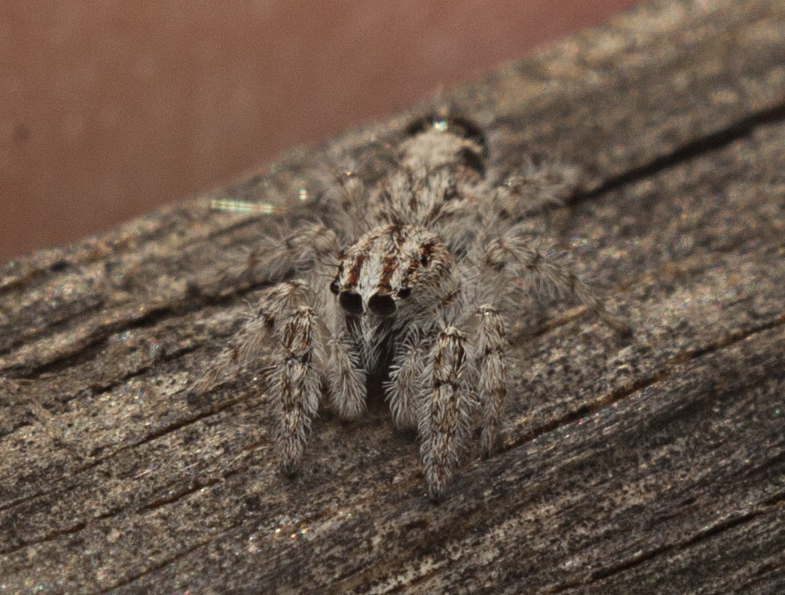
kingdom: Animalia
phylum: Arthropoda
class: Arachnida
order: Araneae
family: Salticidae
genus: Abracadabrella
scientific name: Abracadabrella elegans
